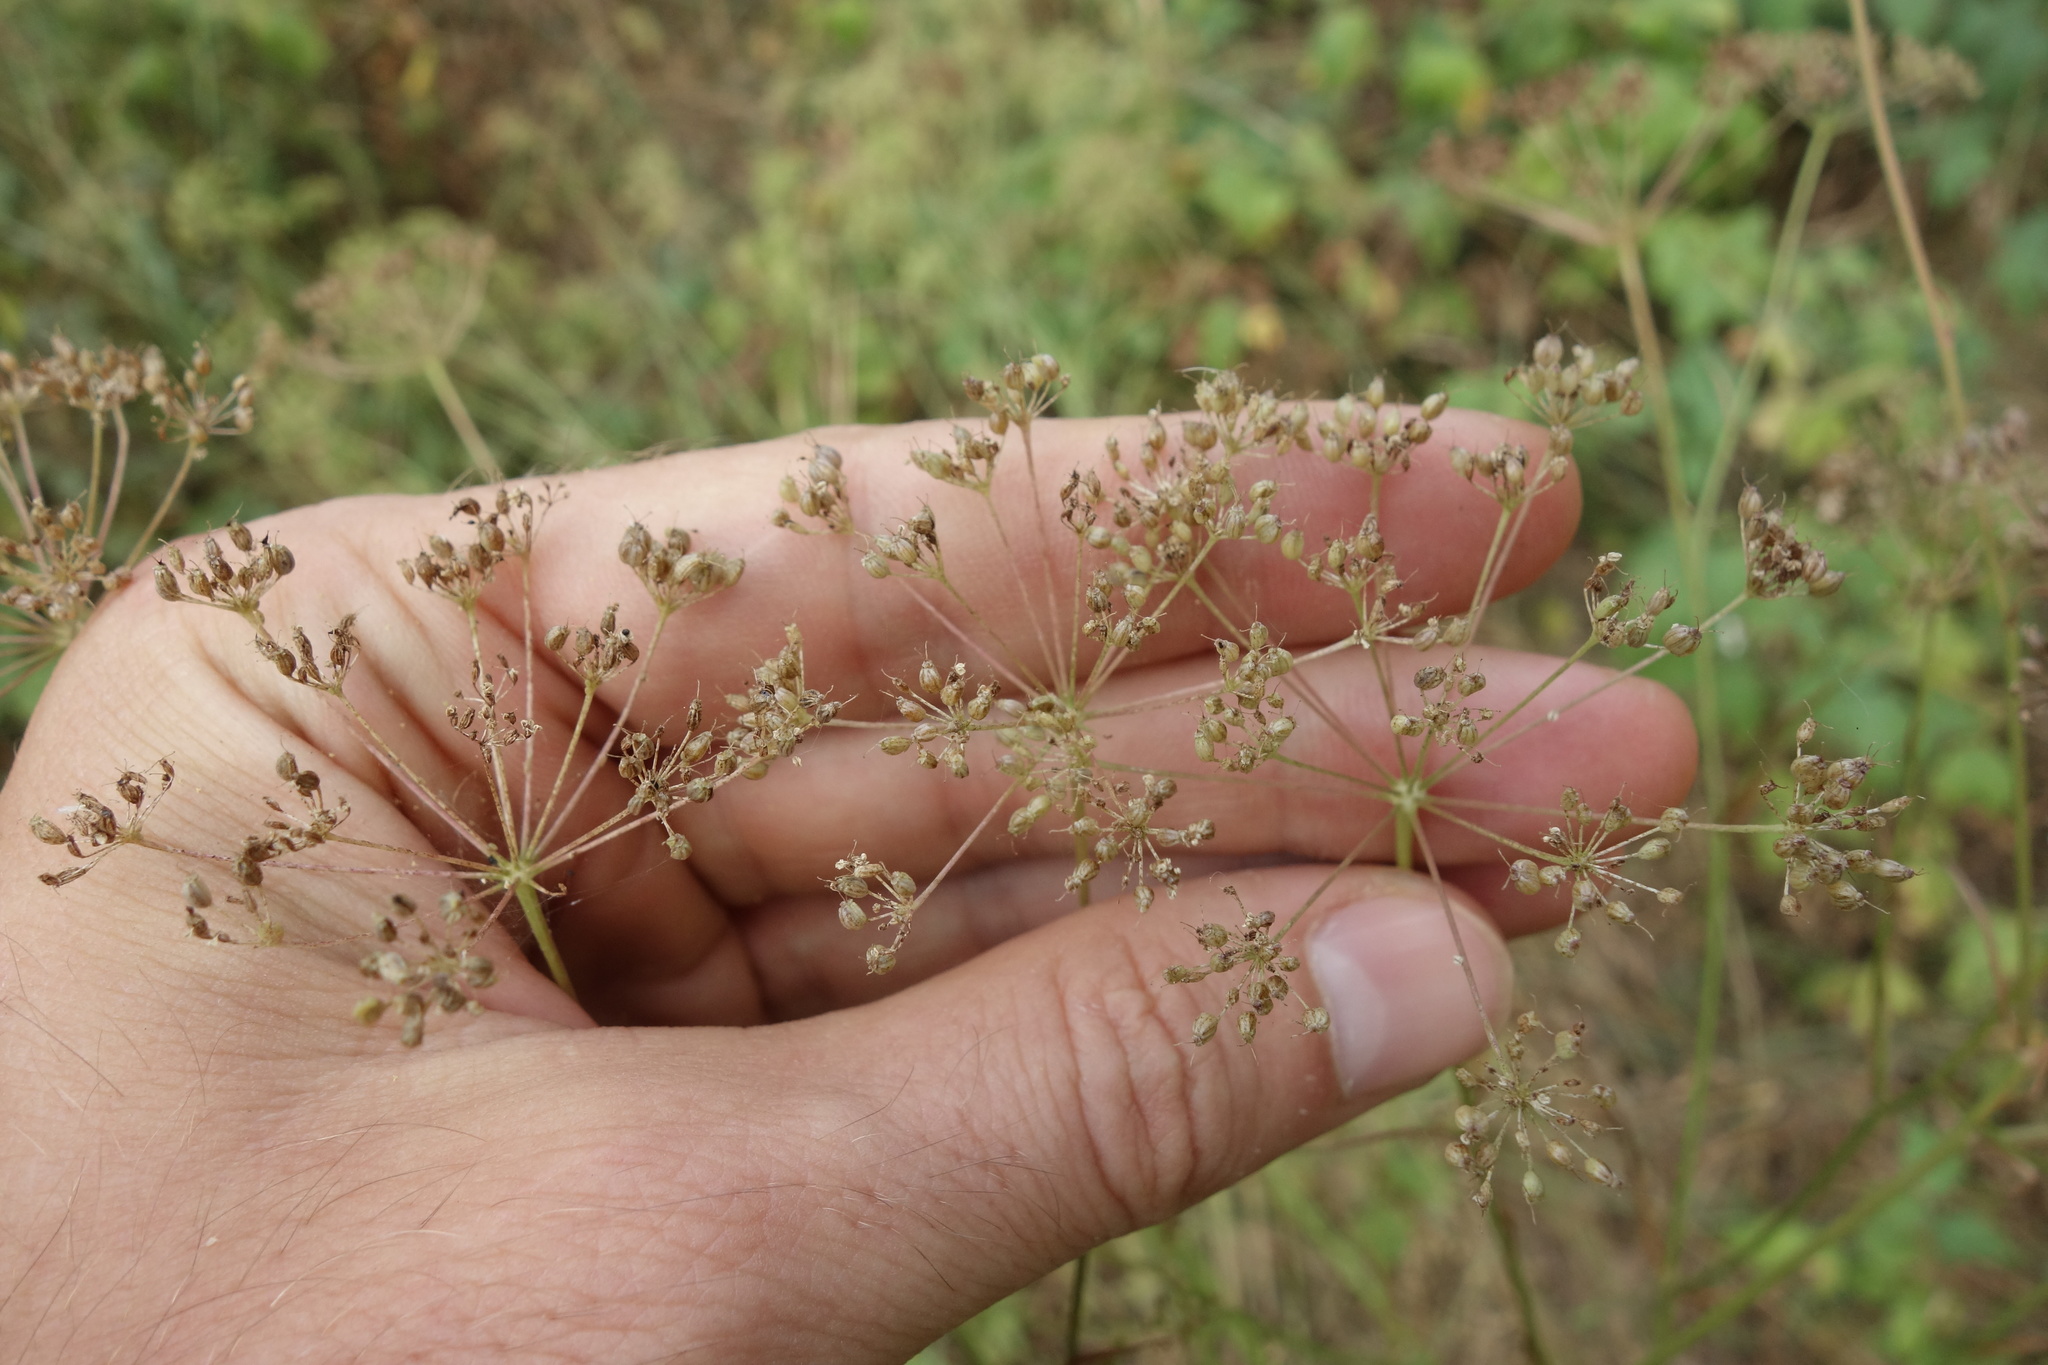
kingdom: Plantae
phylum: Tracheophyta
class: Magnoliopsida
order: Apiales
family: Apiaceae
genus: Pimpinella
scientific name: Pimpinella saxifraga
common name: Burnet-saxifrage
